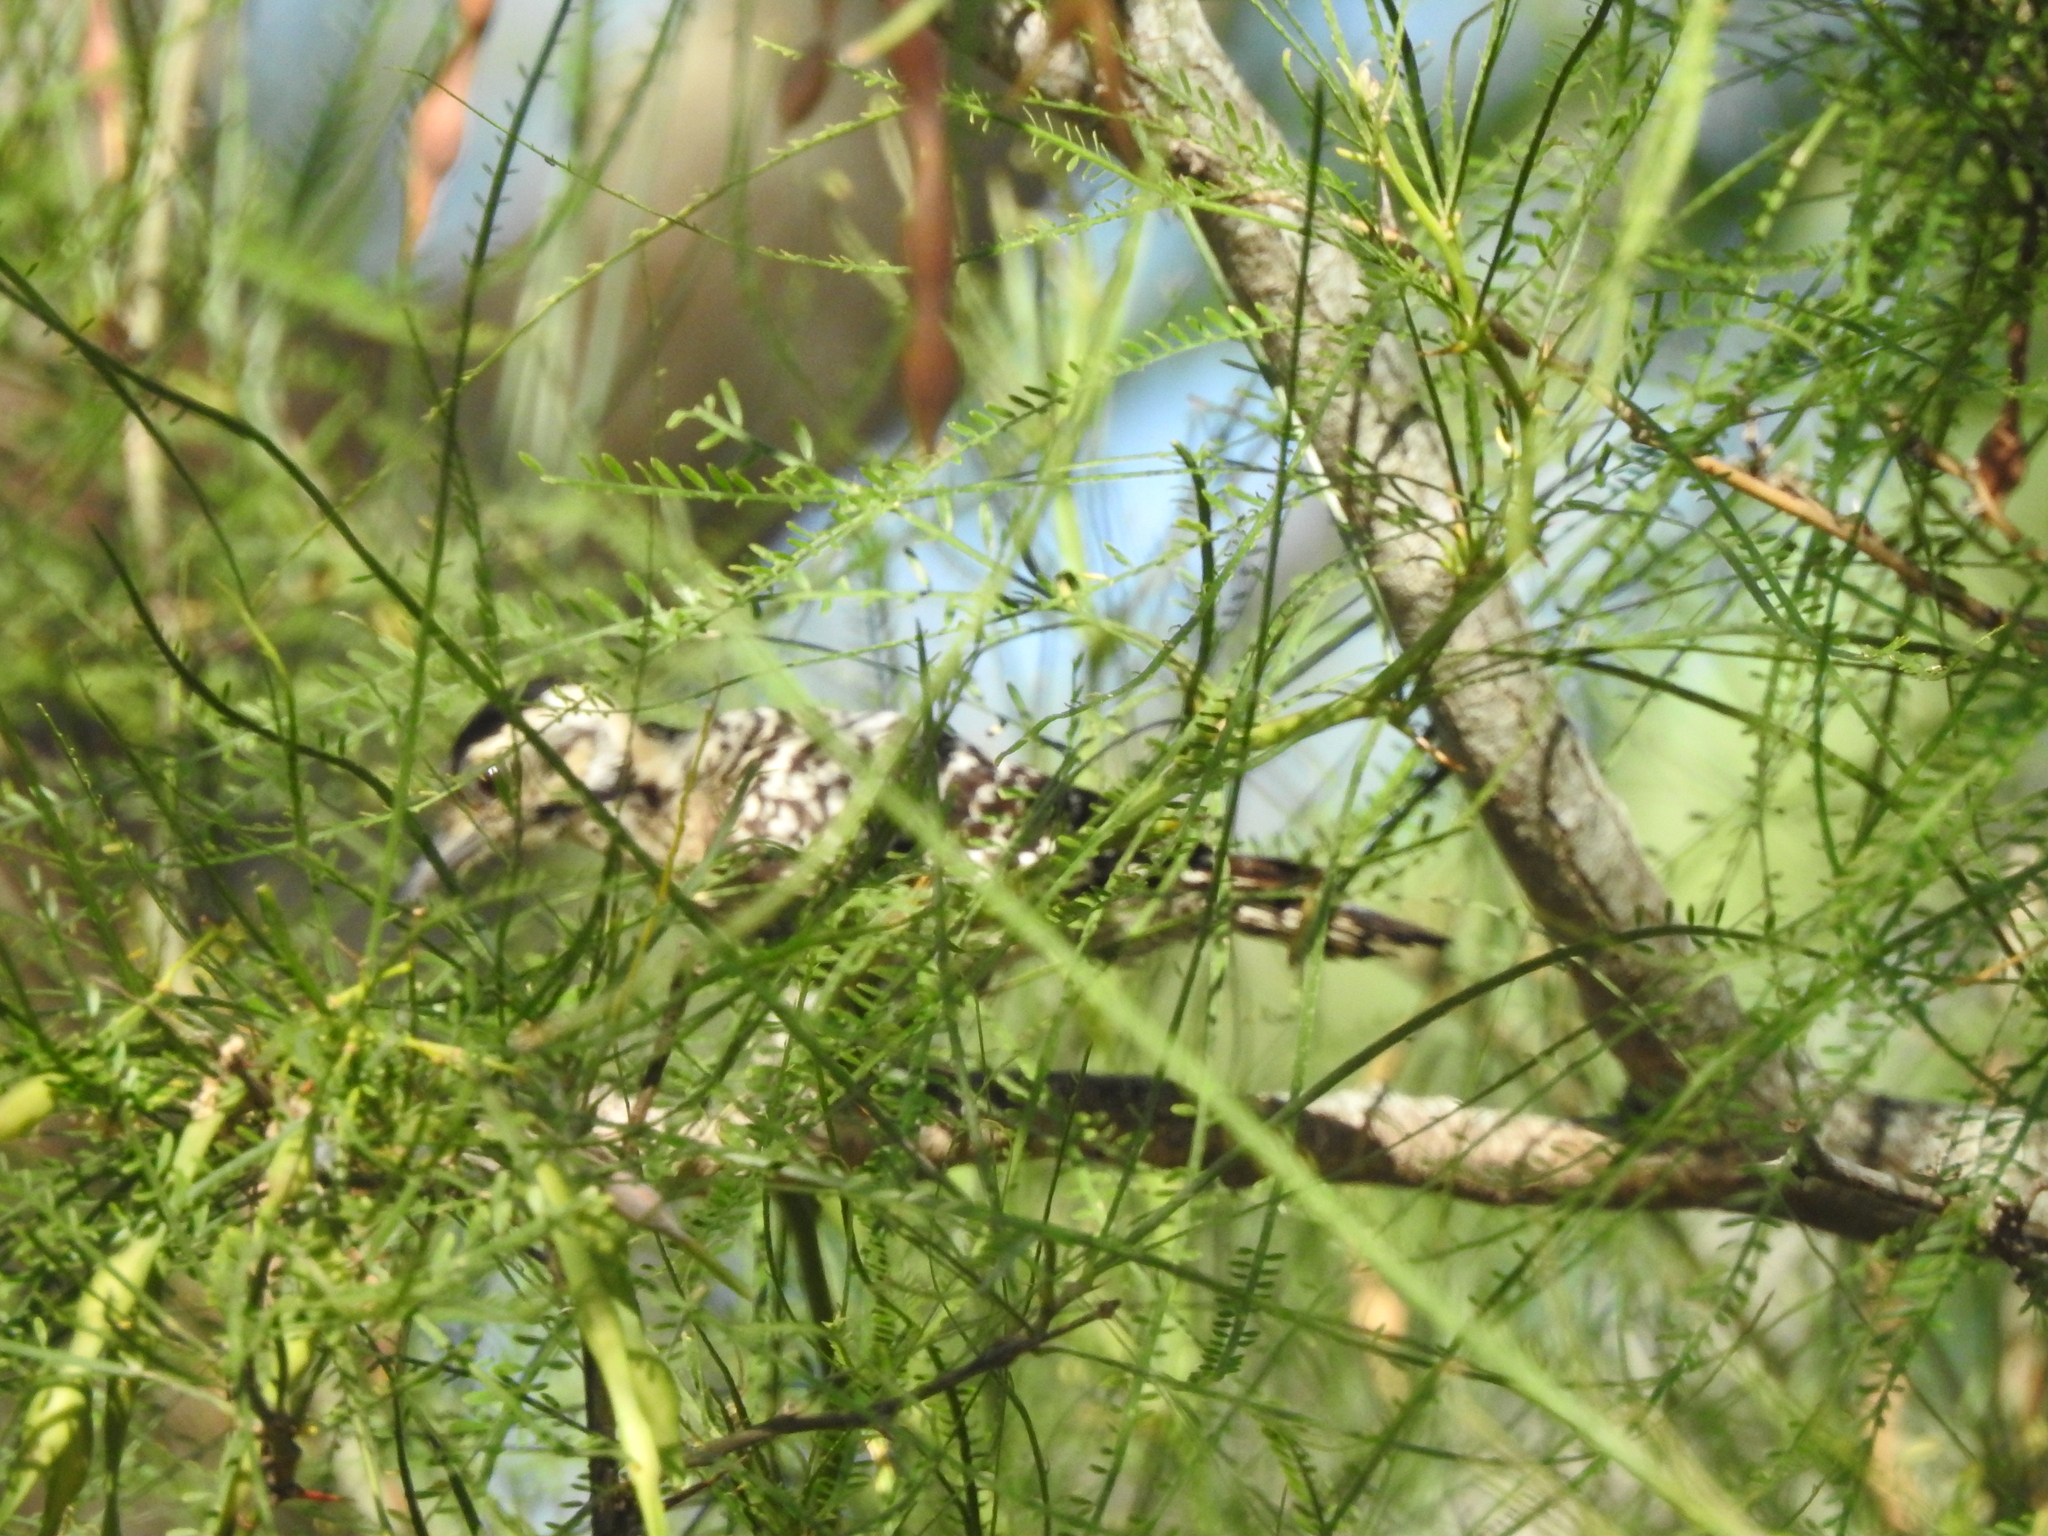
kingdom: Animalia
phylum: Chordata
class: Aves
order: Piciformes
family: Picidae
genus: Dryobates
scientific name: Dryobates scalaris
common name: Ladder-backed woodpecker
